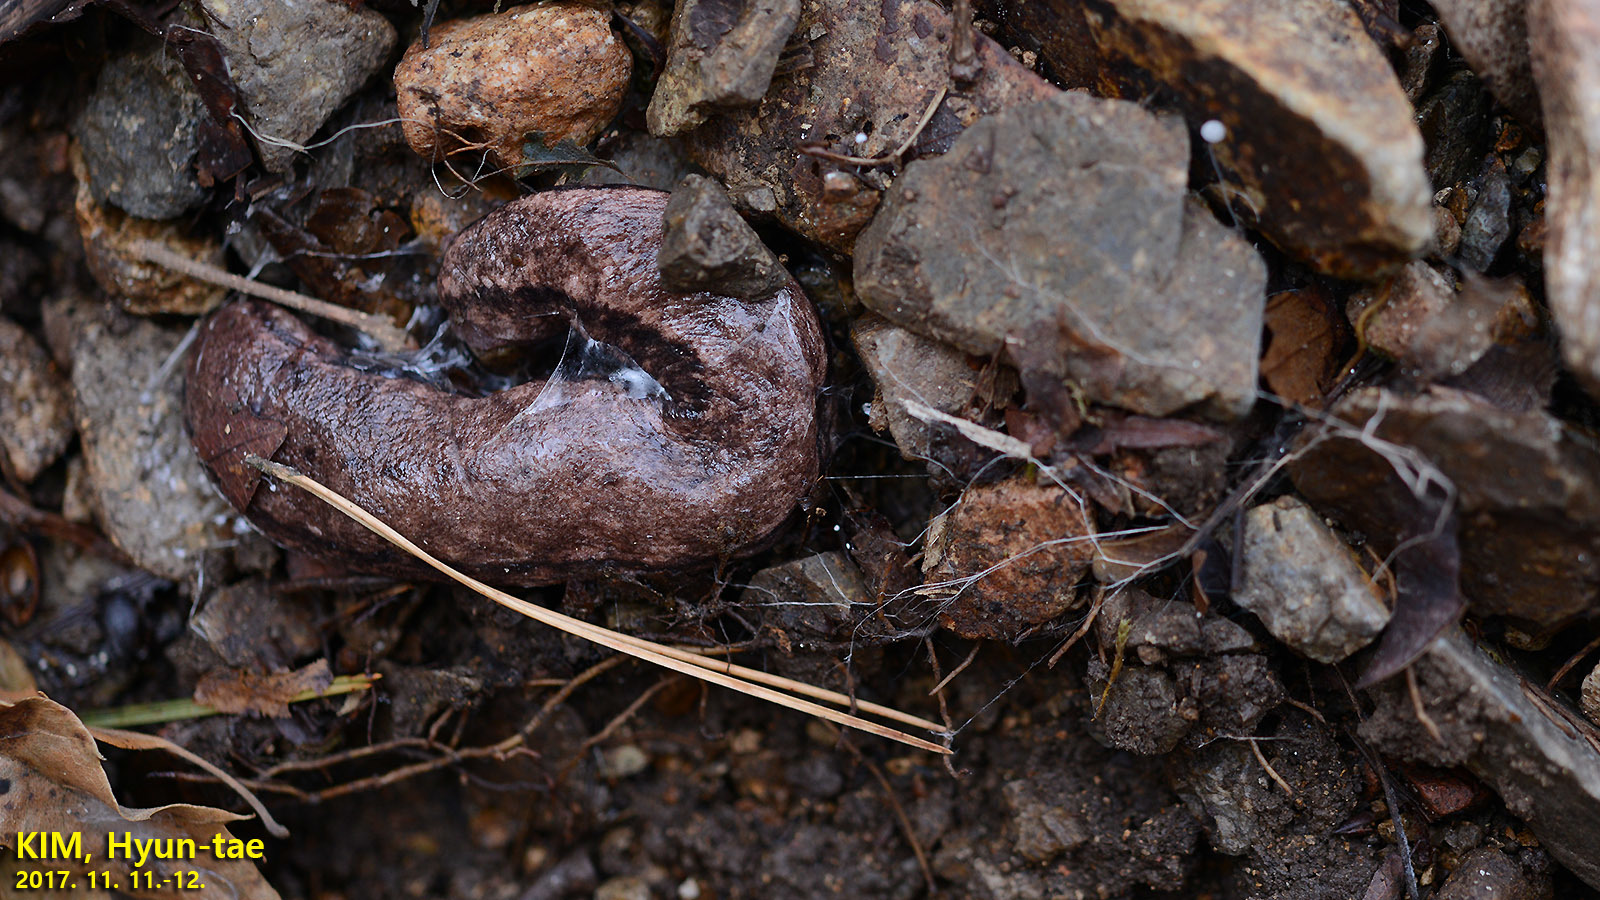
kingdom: Animalia
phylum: Mollusca
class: Gastropoda
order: Stylommatophora
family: Philomycidae
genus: Meghimatium
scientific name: Meghimatium fruhstorferi
